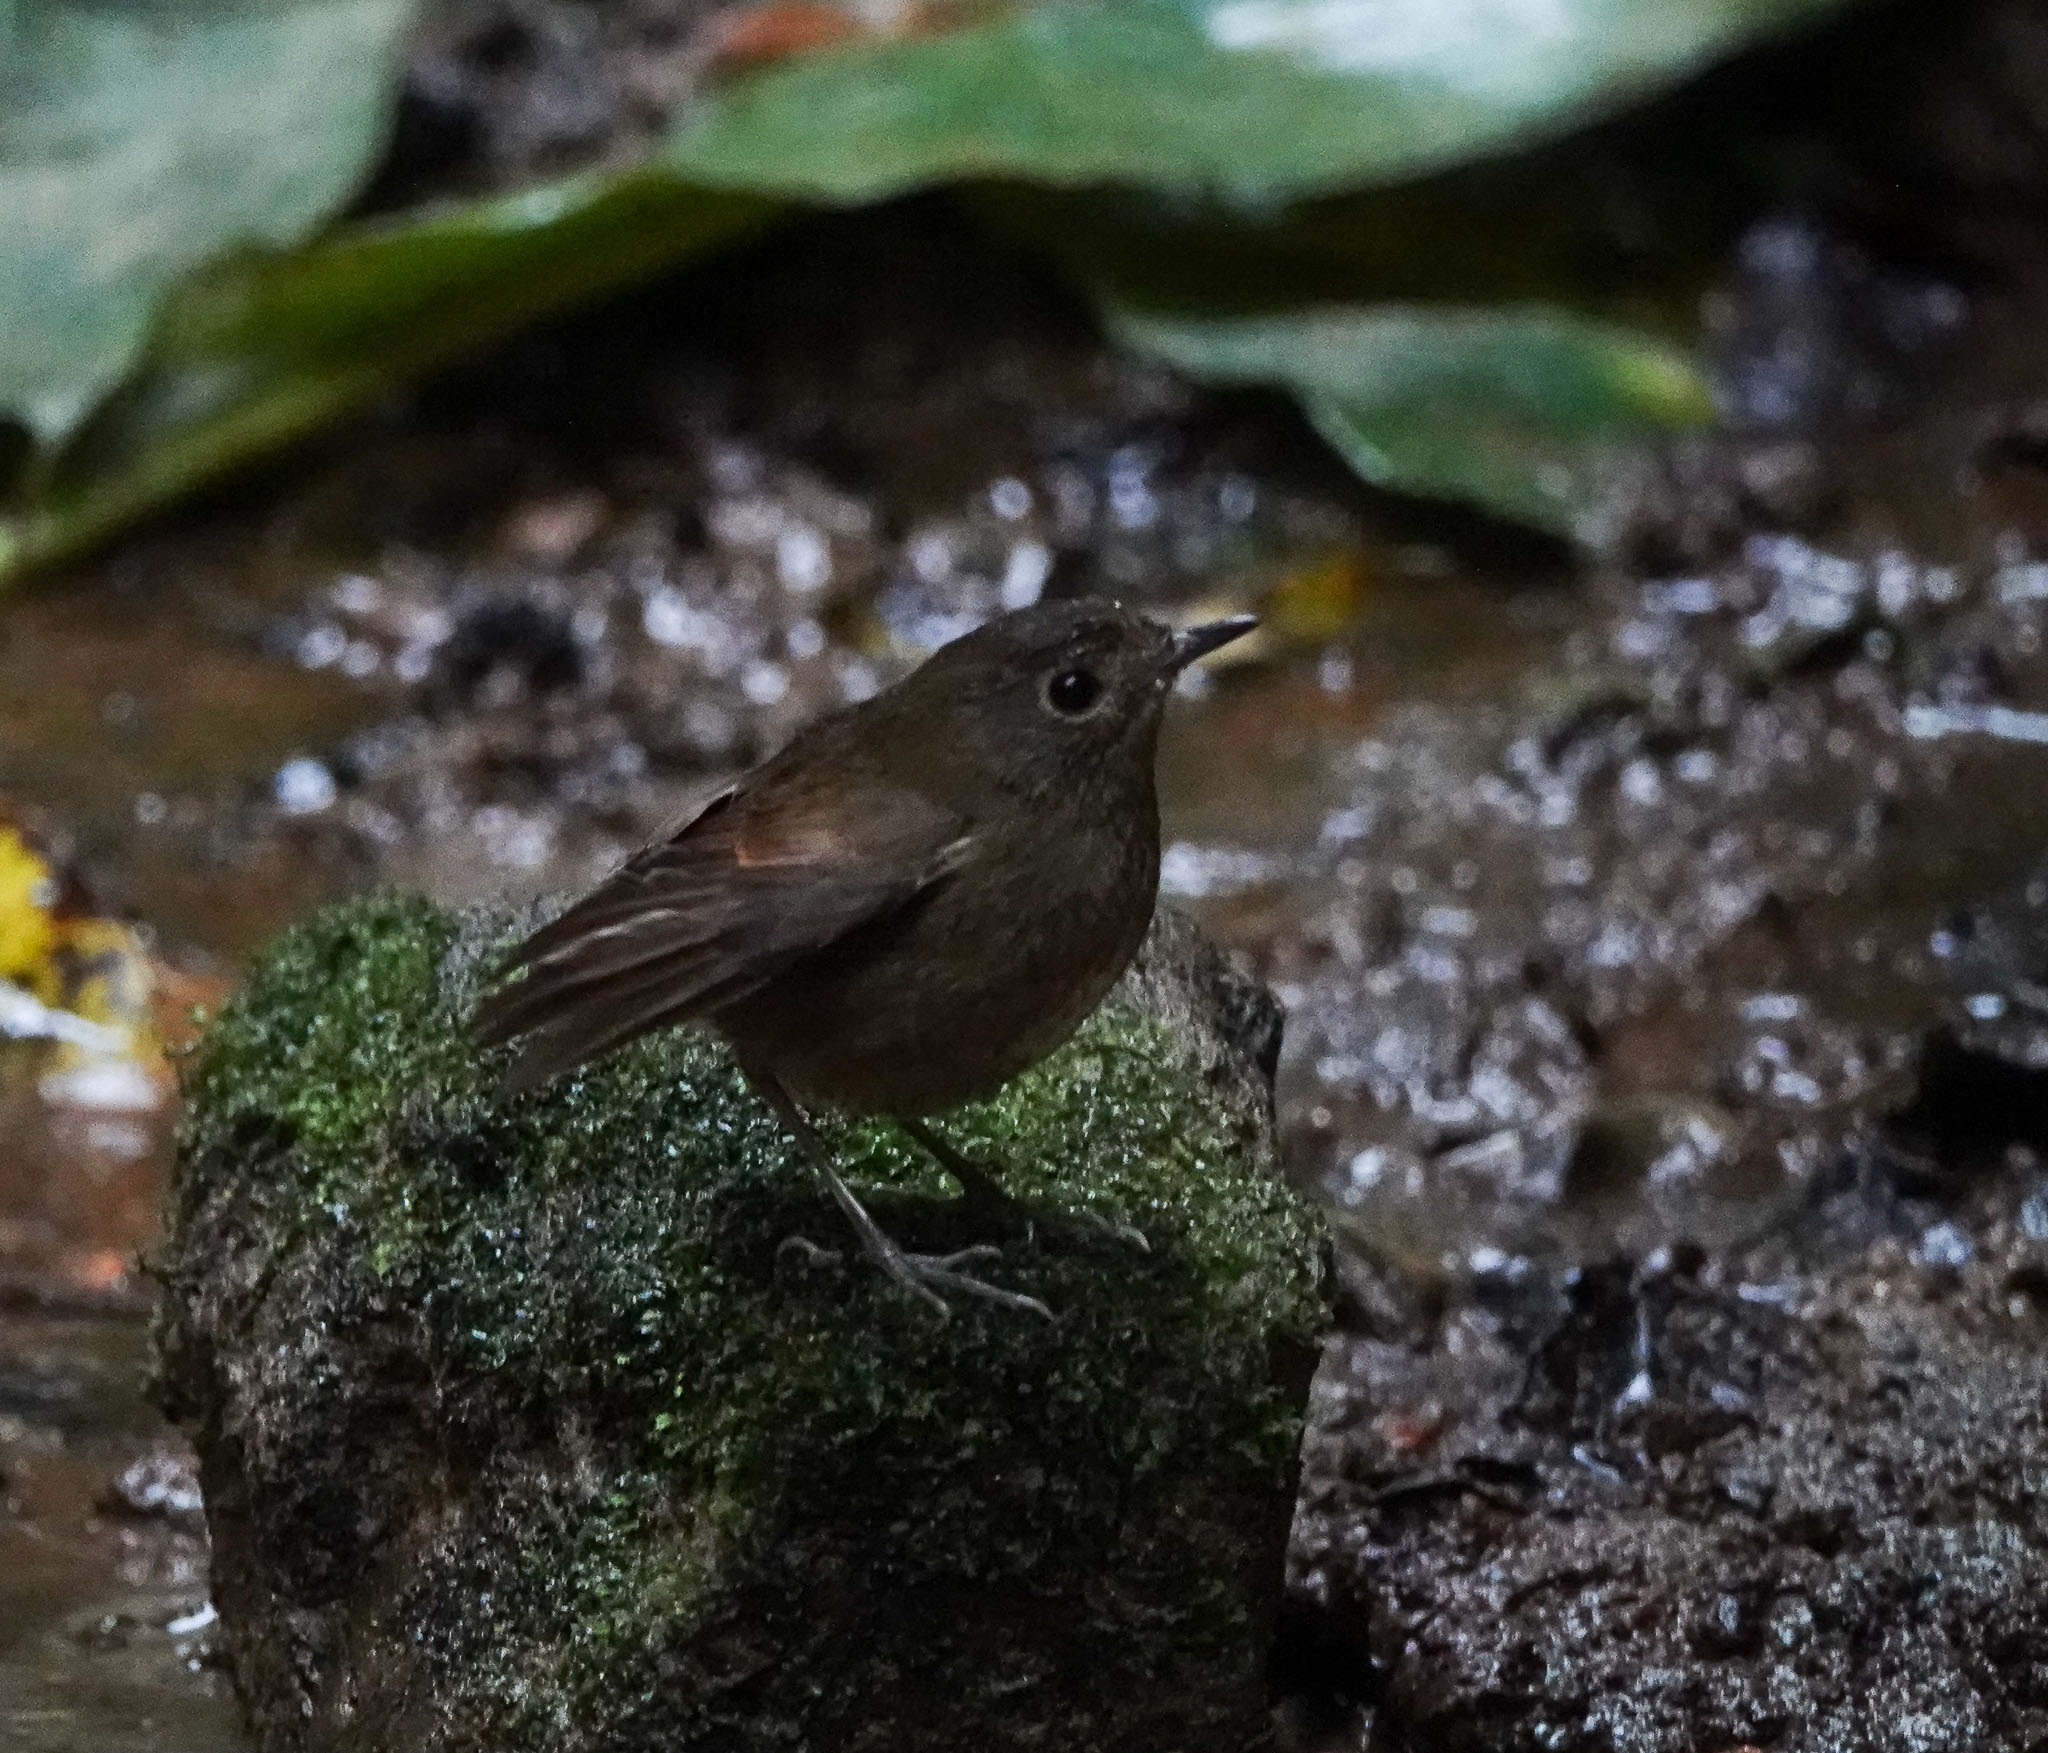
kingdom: Animalia
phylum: Chordata
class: Aves
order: Passeriformes
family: Muscicapidae
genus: Brachypteryx
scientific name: Brachypteryx leucophris
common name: Lesser shortwing
